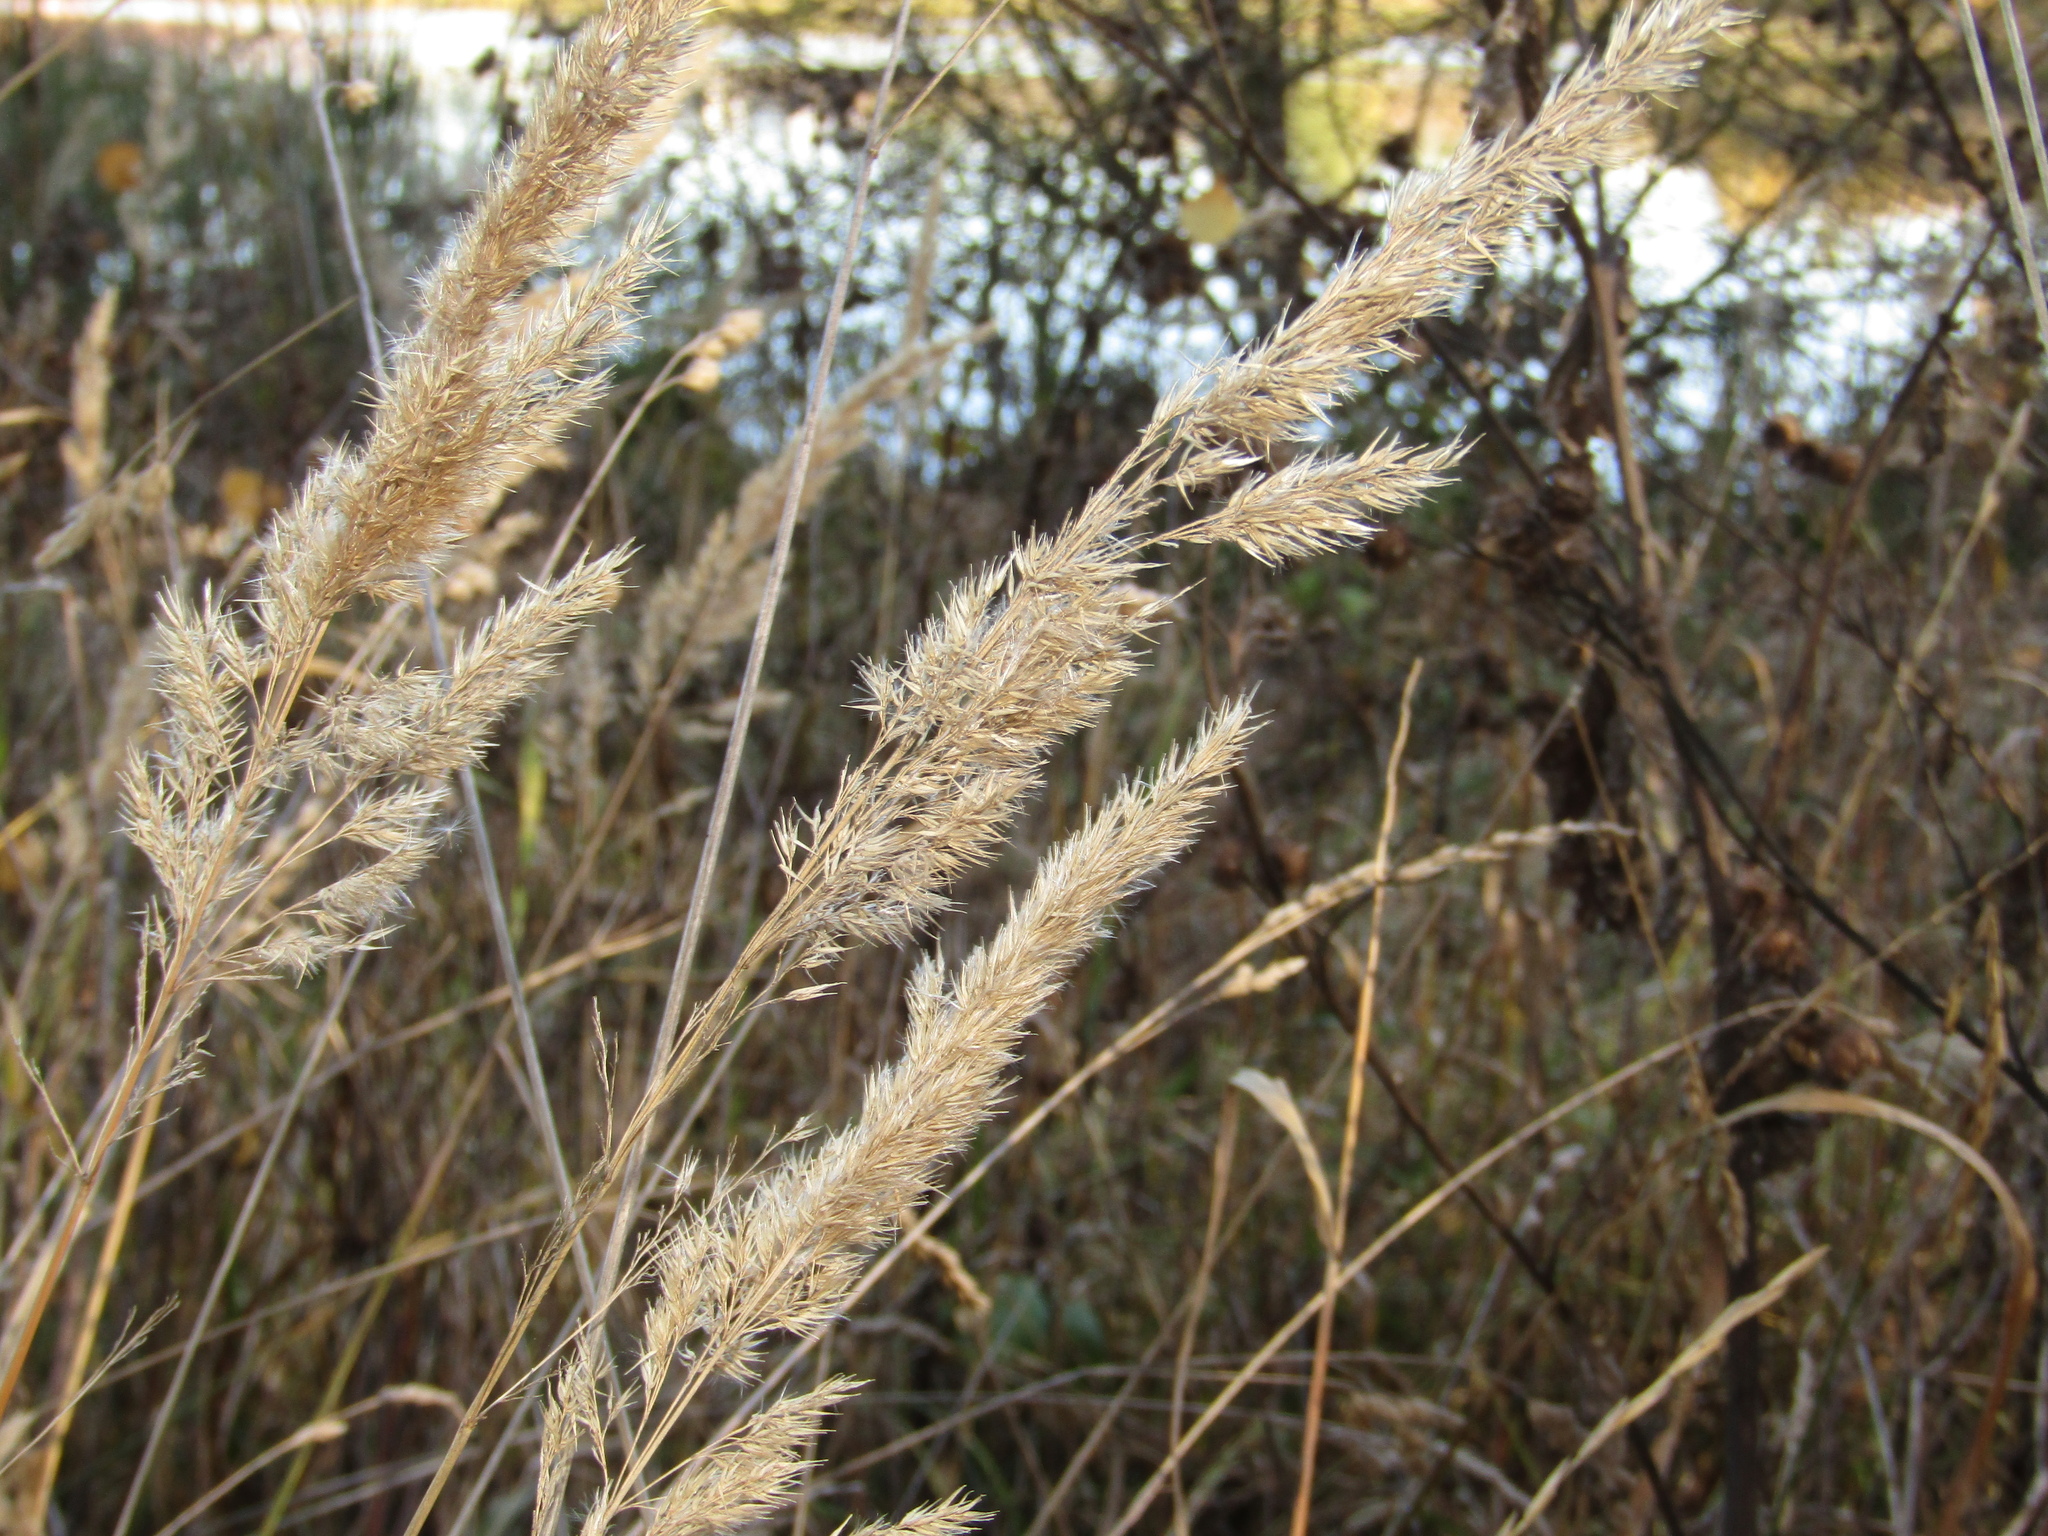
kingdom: Plantae
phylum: Tracheophyta
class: Liliopsida
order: Poales
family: Poaceae
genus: Calamagrostis
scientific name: Calamagrostis epigejos
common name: Wood small-reed
